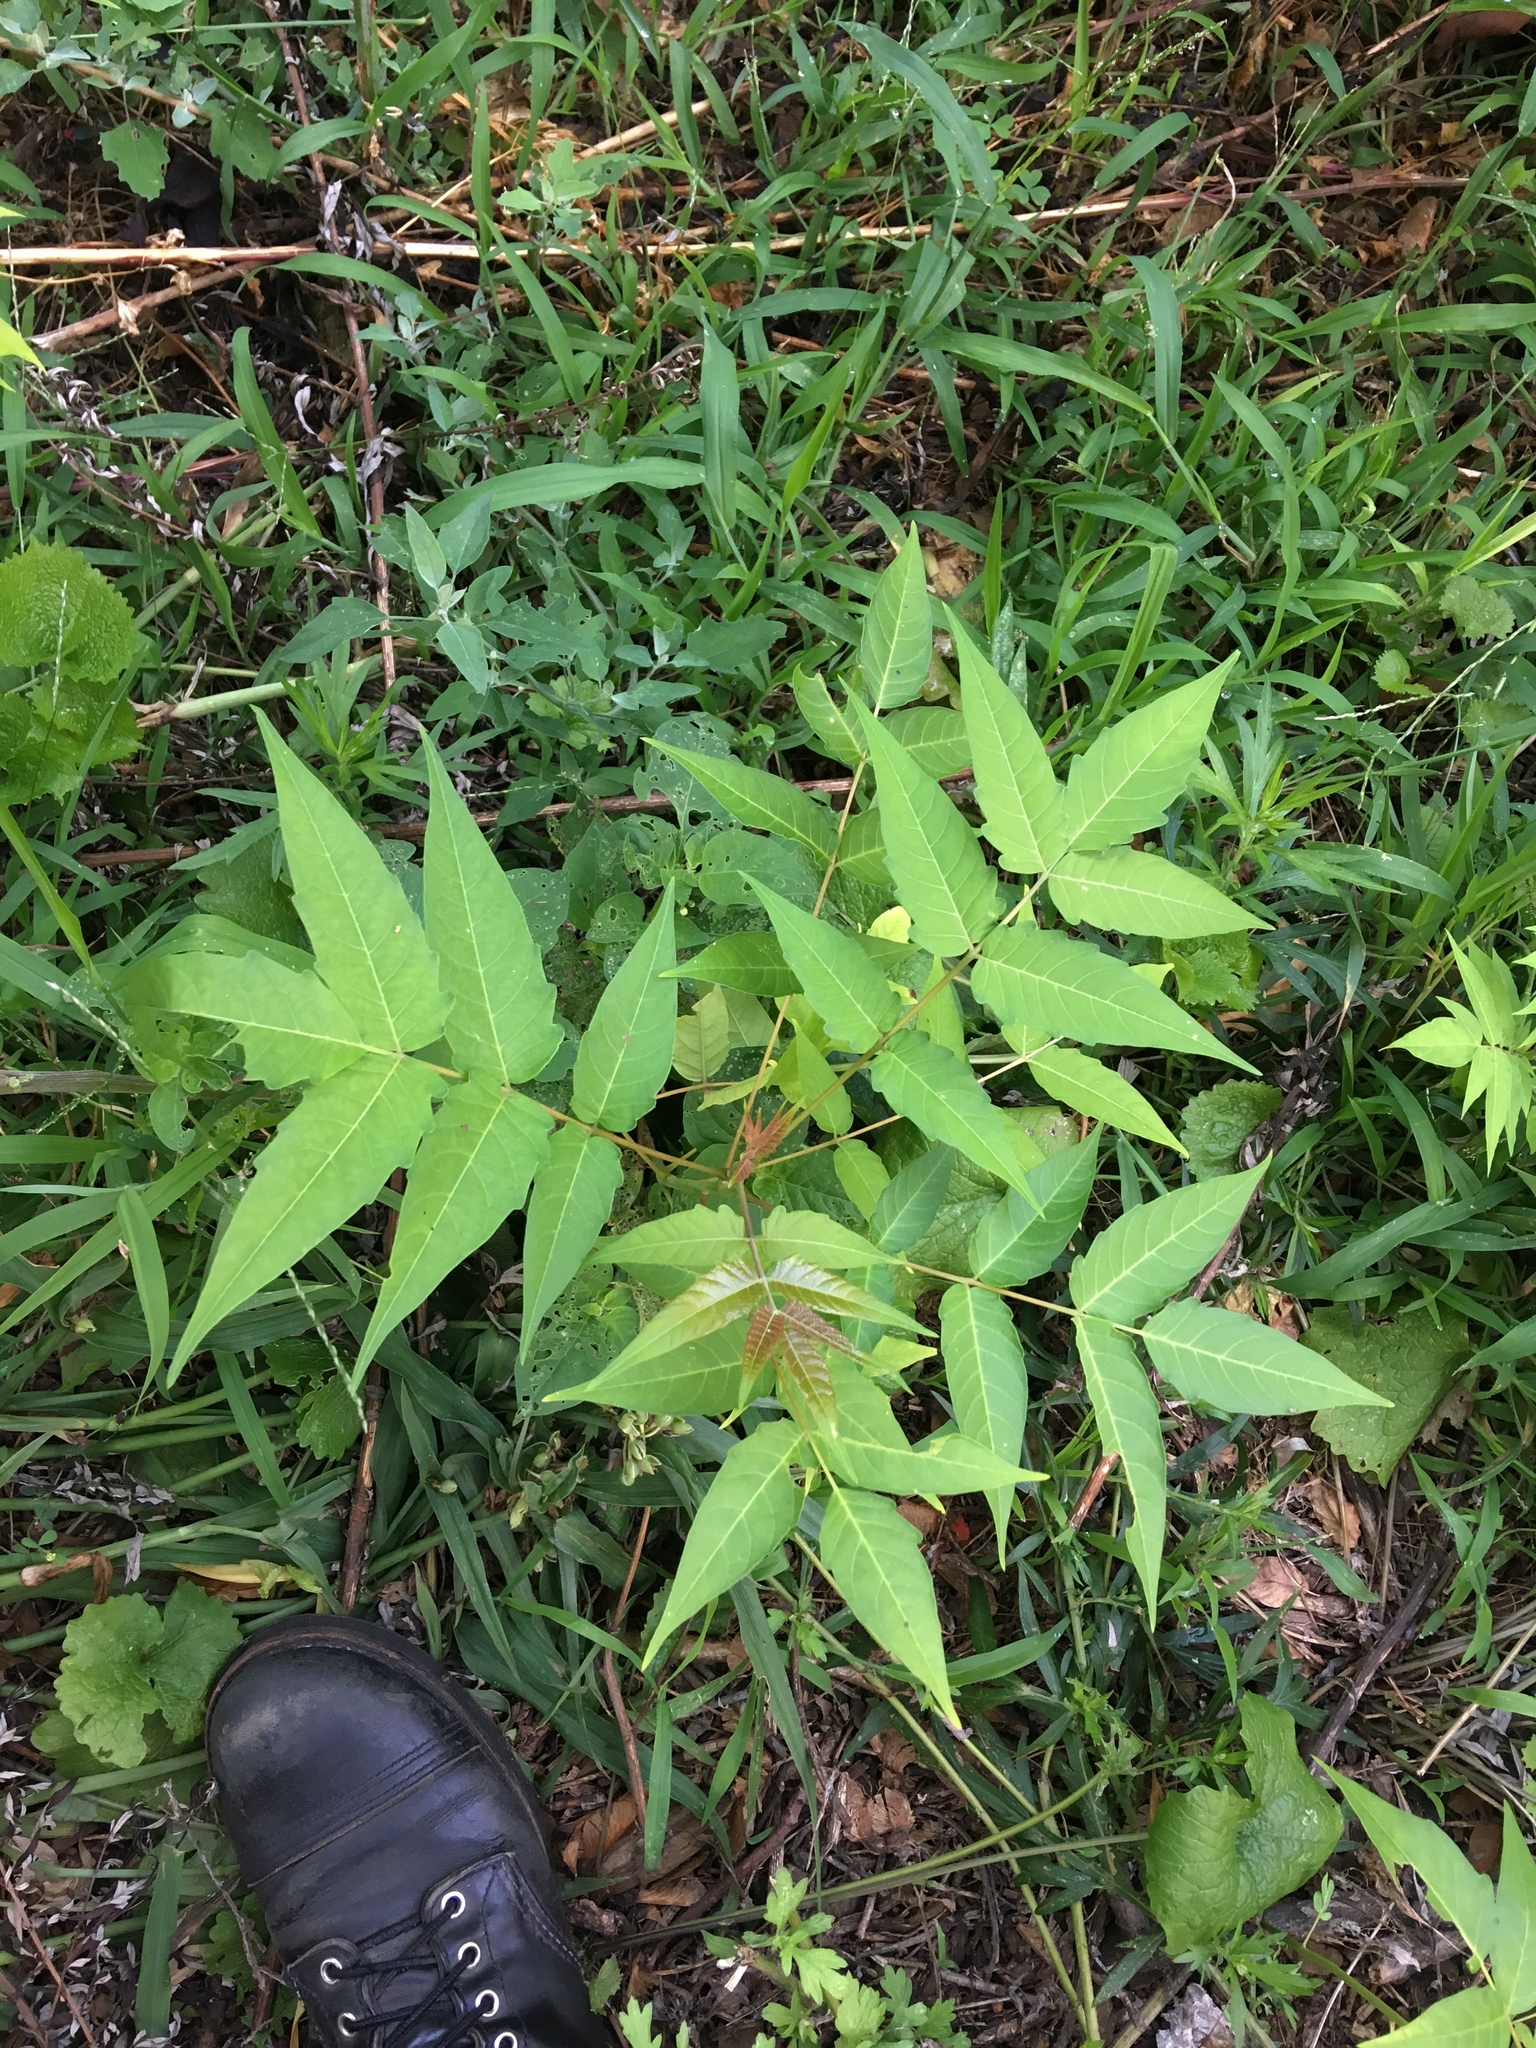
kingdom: Plantae
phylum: Tracheophyta
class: Magnoliopsida
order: Sapindales
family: Simaroubaceae
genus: Ailanthus
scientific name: Ailanthus altissima
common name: Tree-of-heaven
